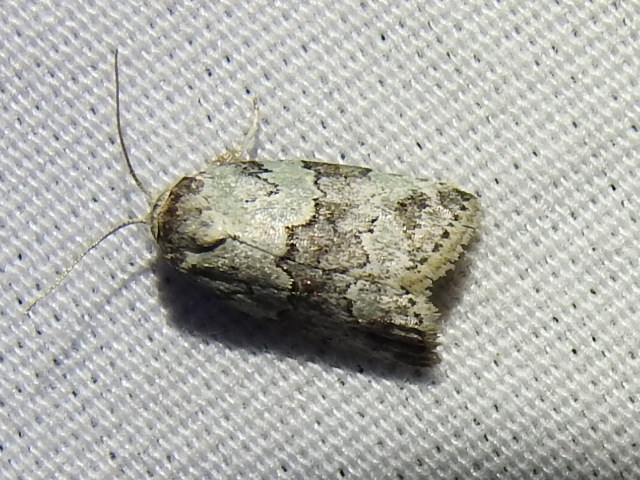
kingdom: Animalia
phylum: Arthropoda
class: Insecta
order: Lepidoptera
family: Nolidae
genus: Afrida
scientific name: Afrida ydatodes
